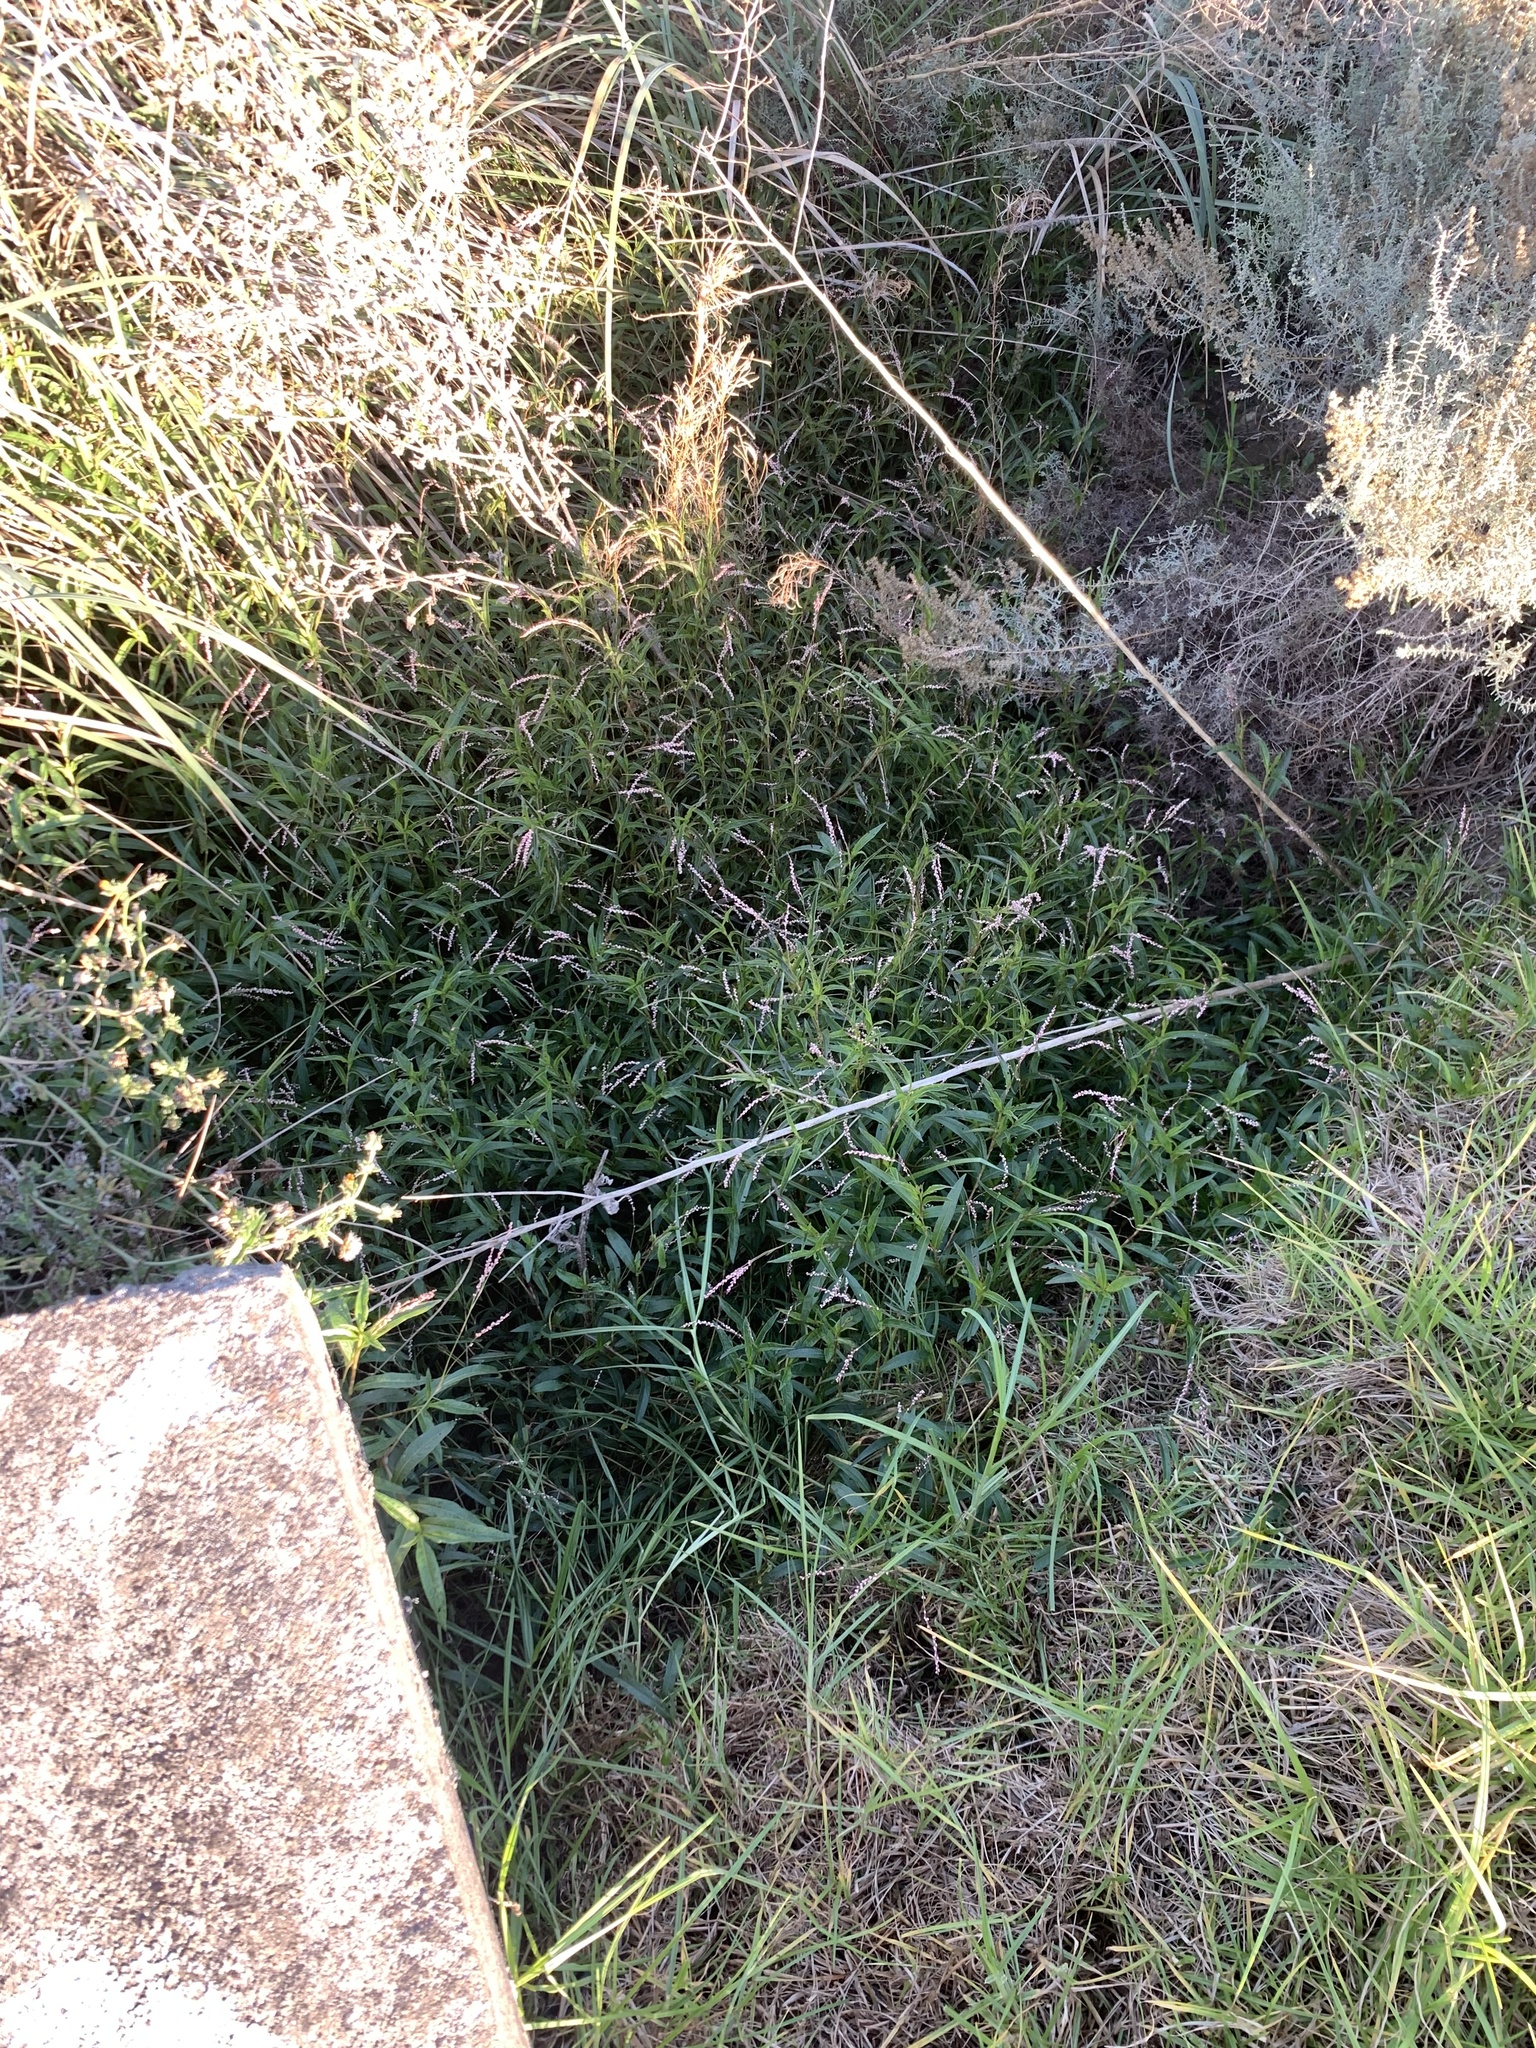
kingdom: Plantae
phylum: Tracheophyta
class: Magnoliopsida
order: Caryophyllales
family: Polygonaceae
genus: Persicaria
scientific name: Persicaria decipiens
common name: Willow-weed
